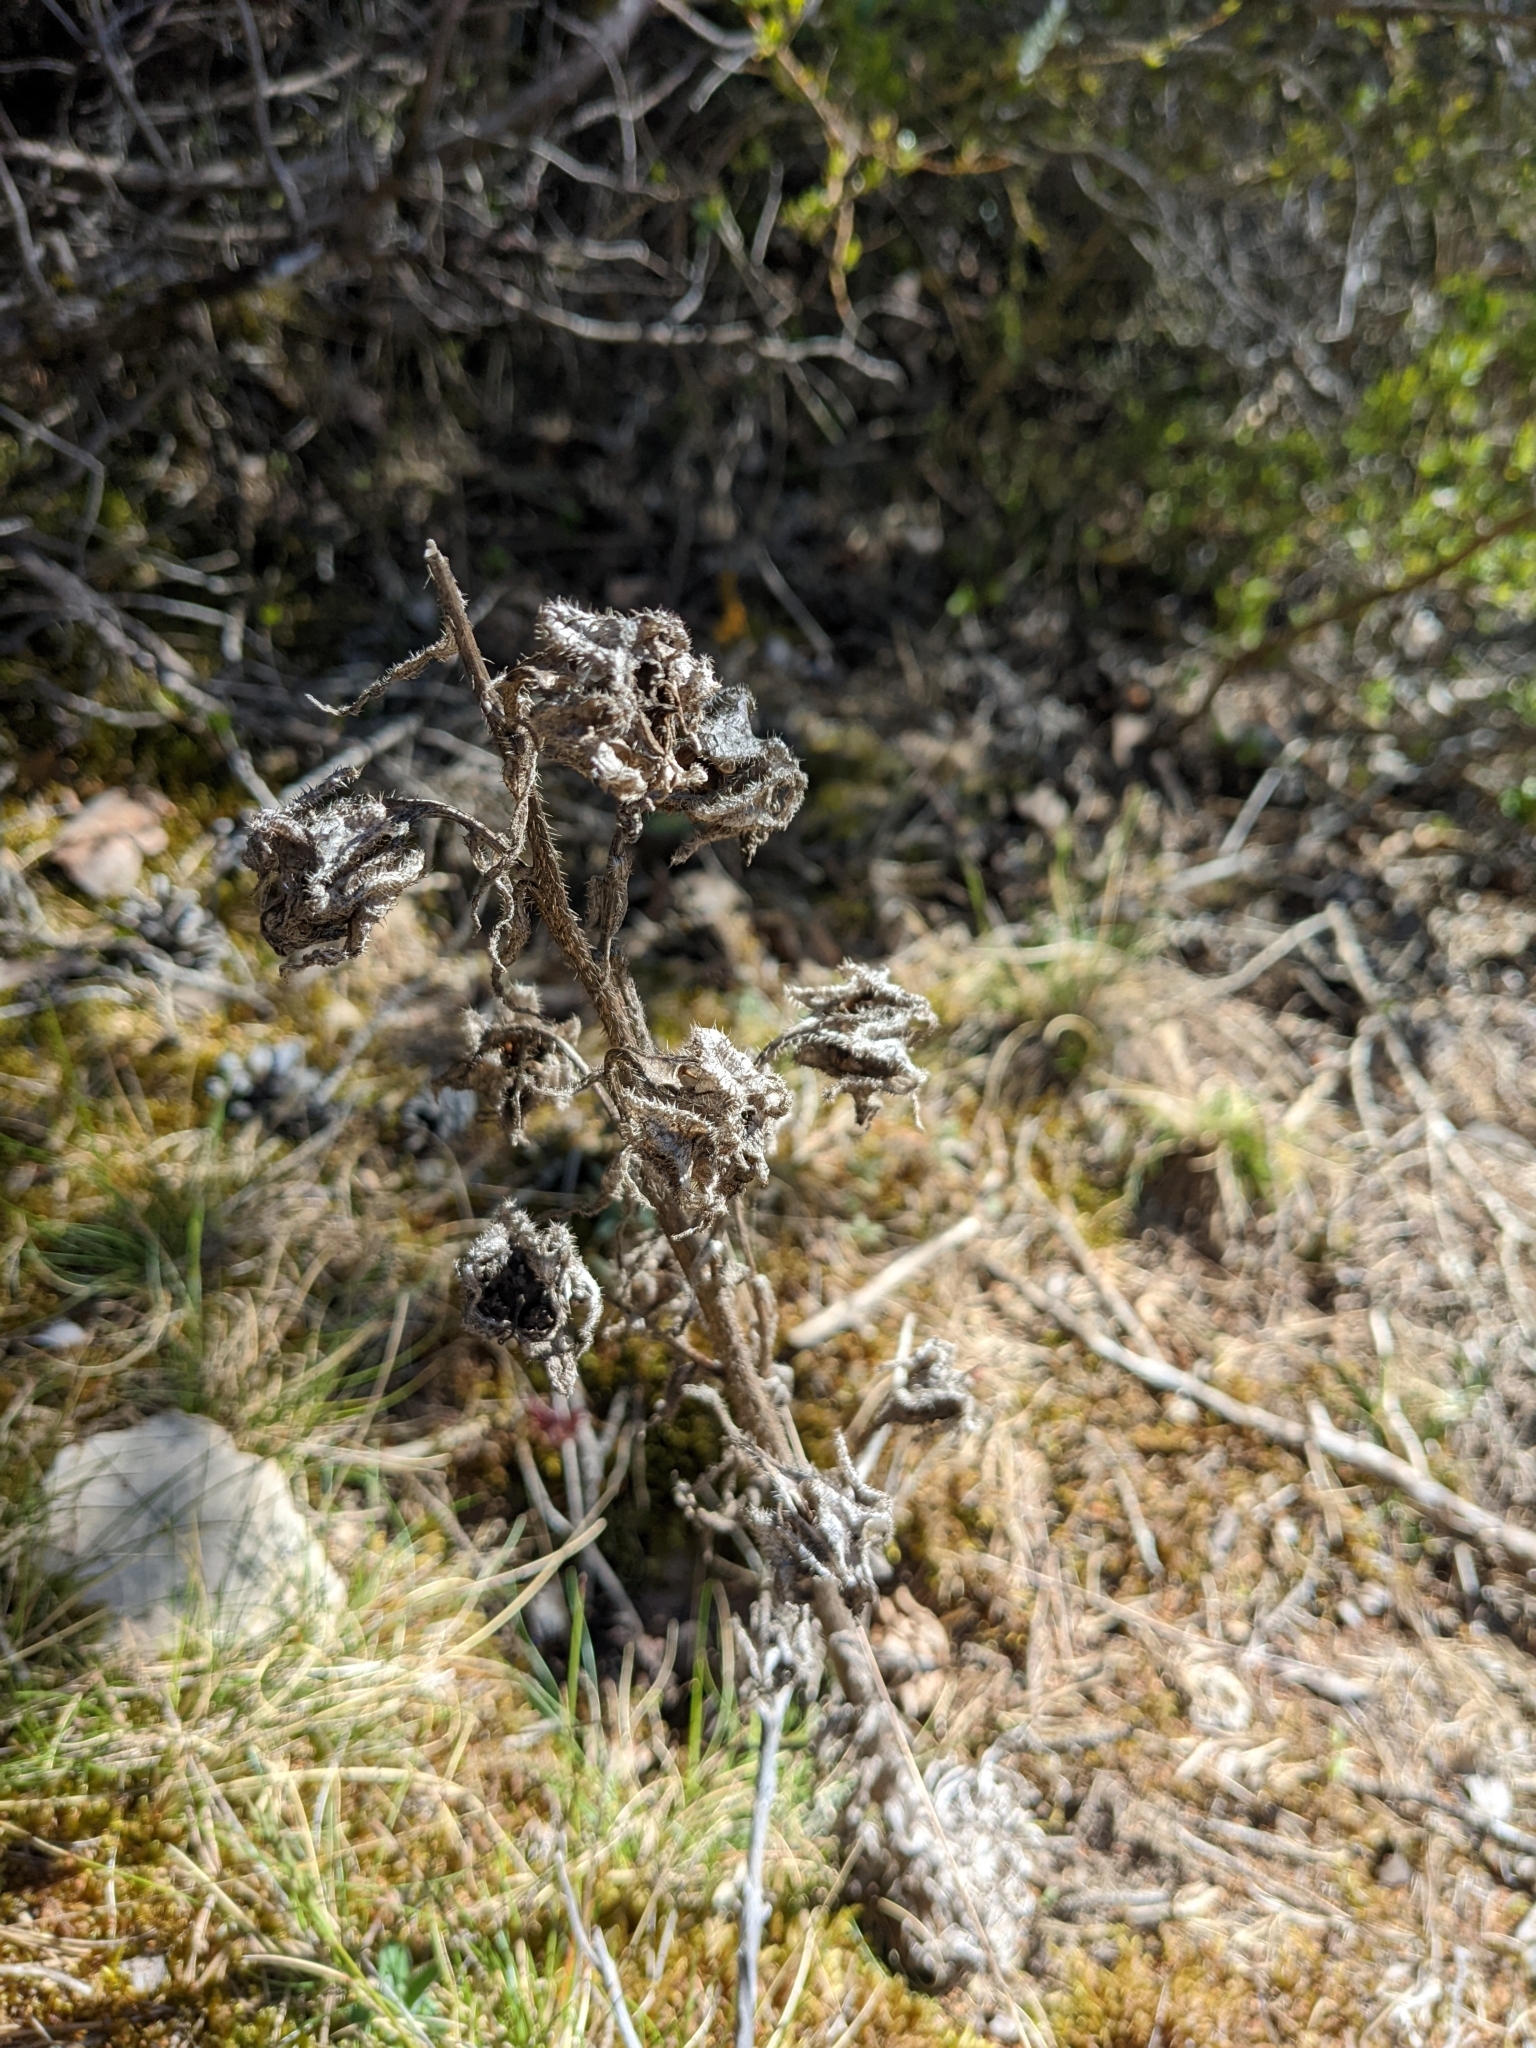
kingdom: Plantae
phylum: Tracheophyta
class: Magnoliopsida
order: Asterales
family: Campanulaceae
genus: Campanula
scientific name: Campanula speciosa
